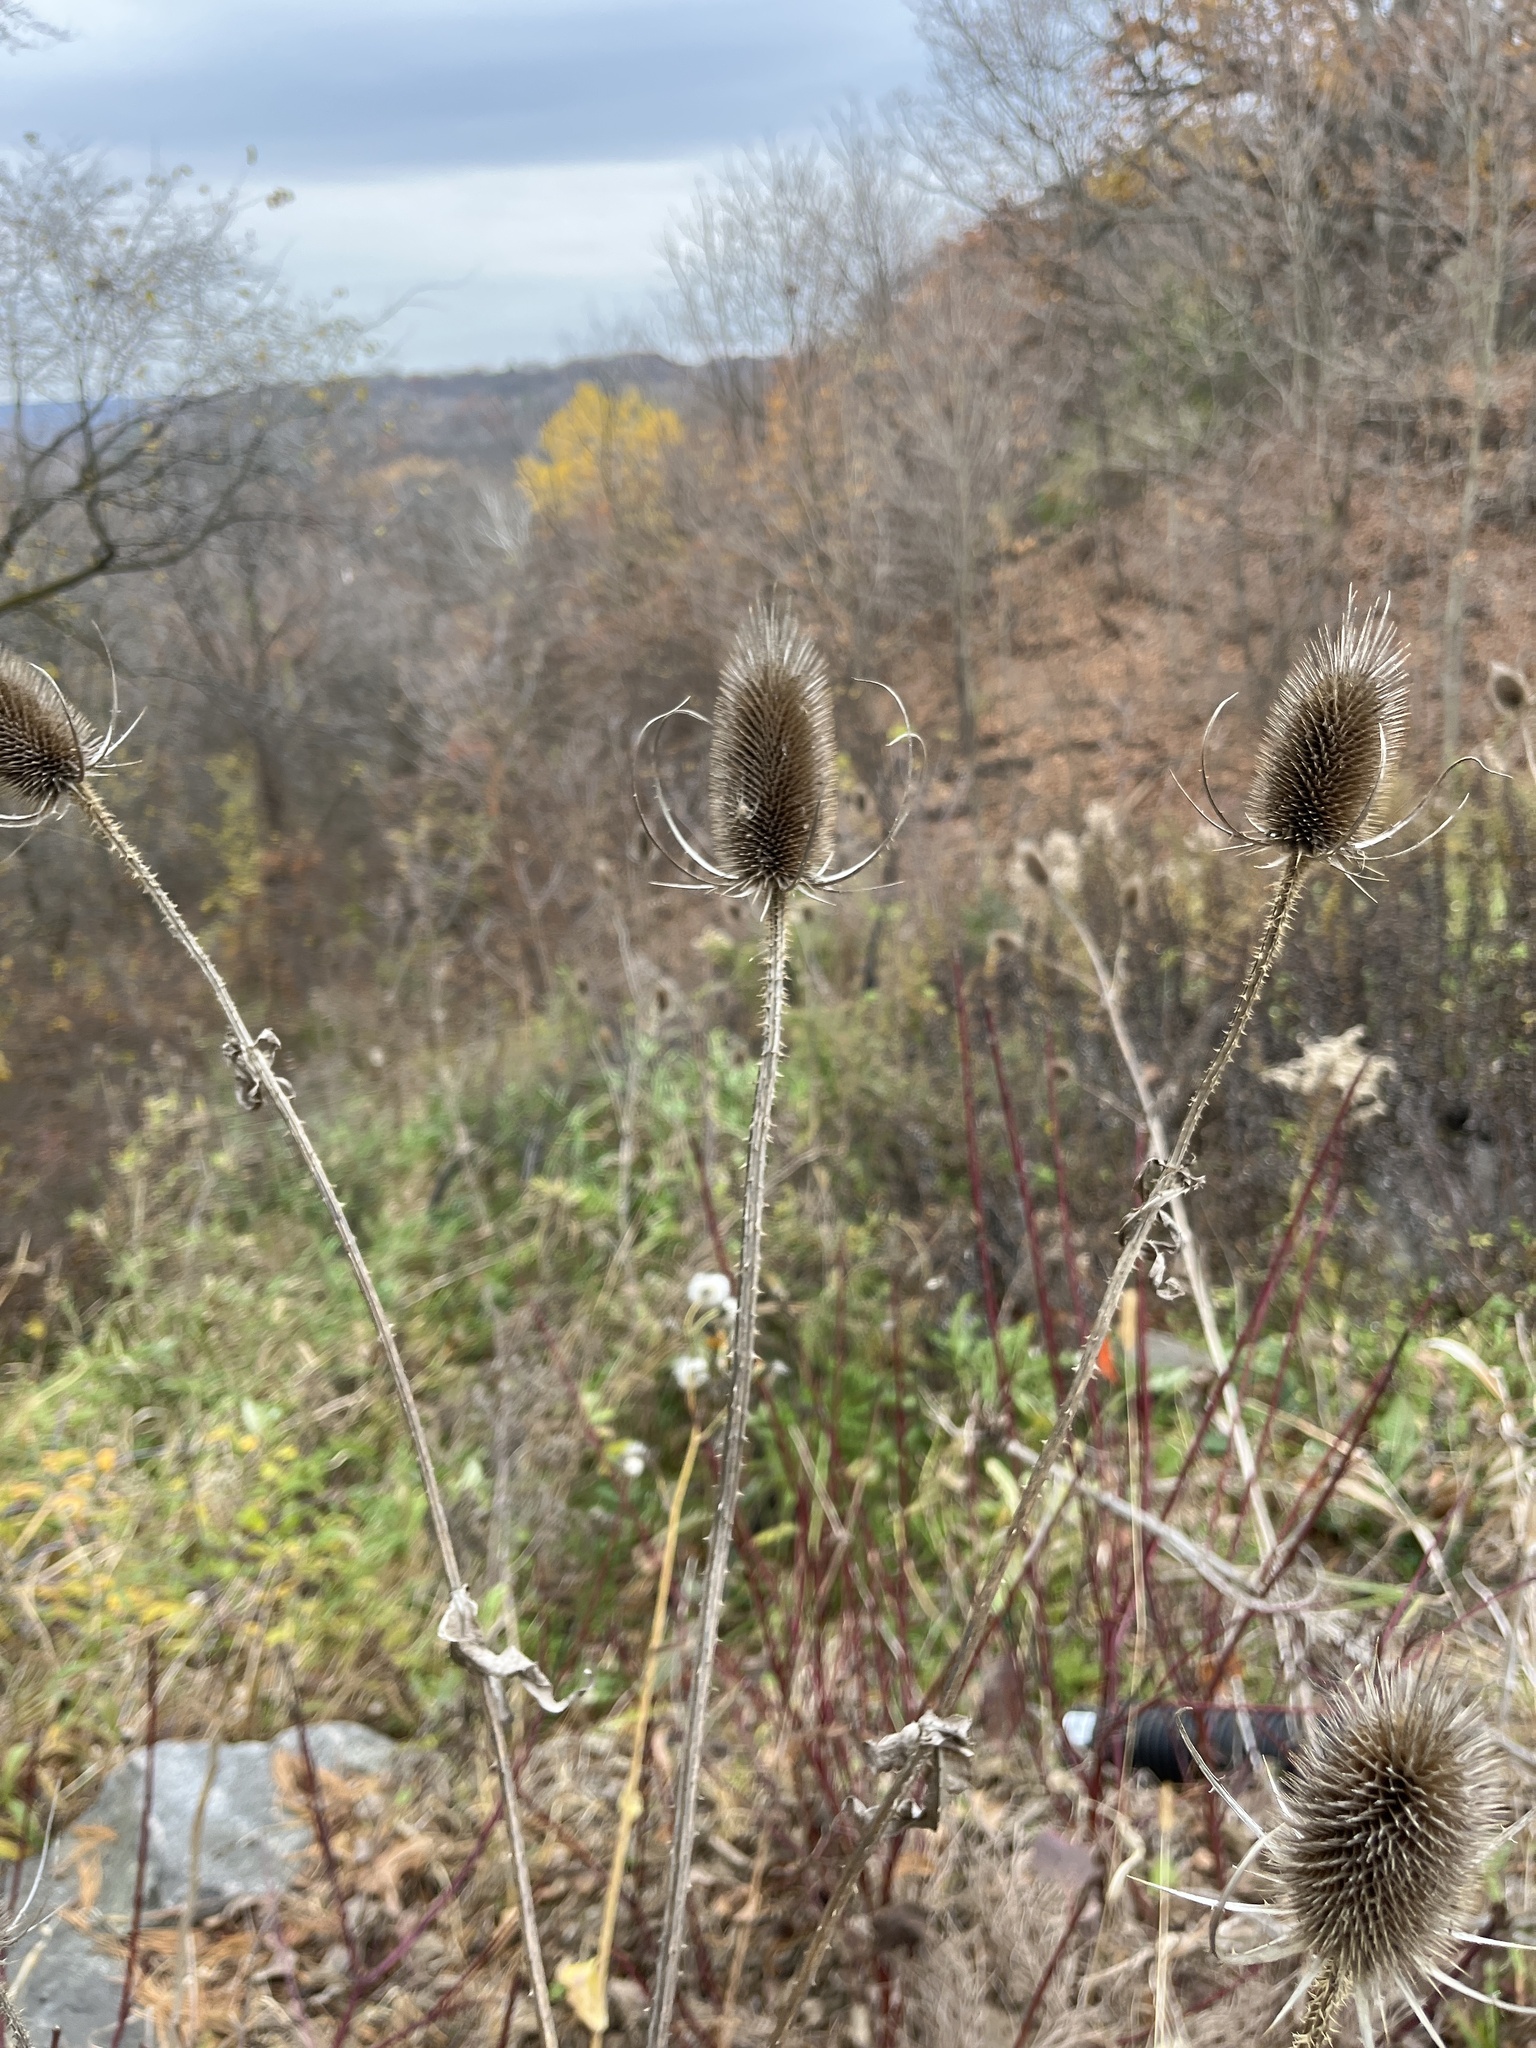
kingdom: Plantae
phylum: Tracheophyta
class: Magnoliopsida
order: Dipsacales
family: Caprifoliaceae
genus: Dipsacus
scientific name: Dipsacus fullonum
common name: Teasel
